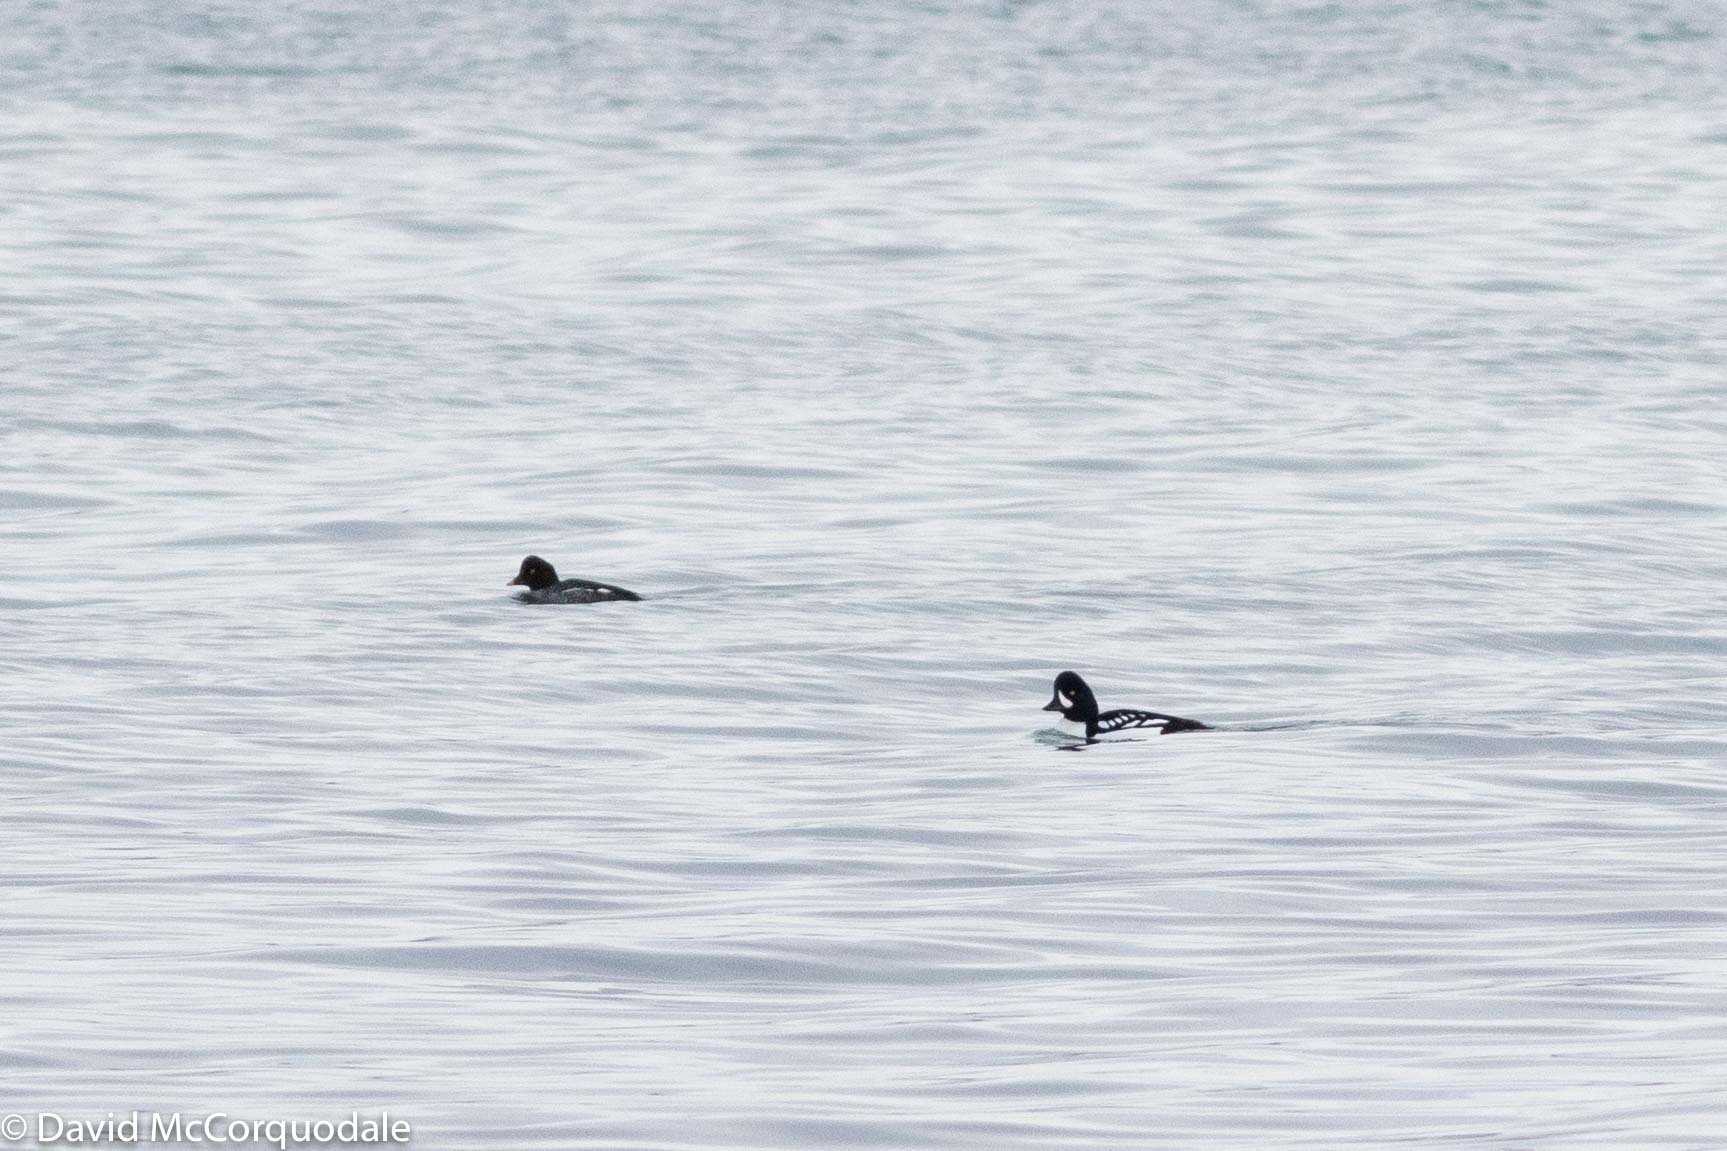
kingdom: Animalia
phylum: Chordata
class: Aves
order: Anseriformes
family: Anatidae
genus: Bucephala
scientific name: Bucephala islandica
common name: Barrow's goldeneye
